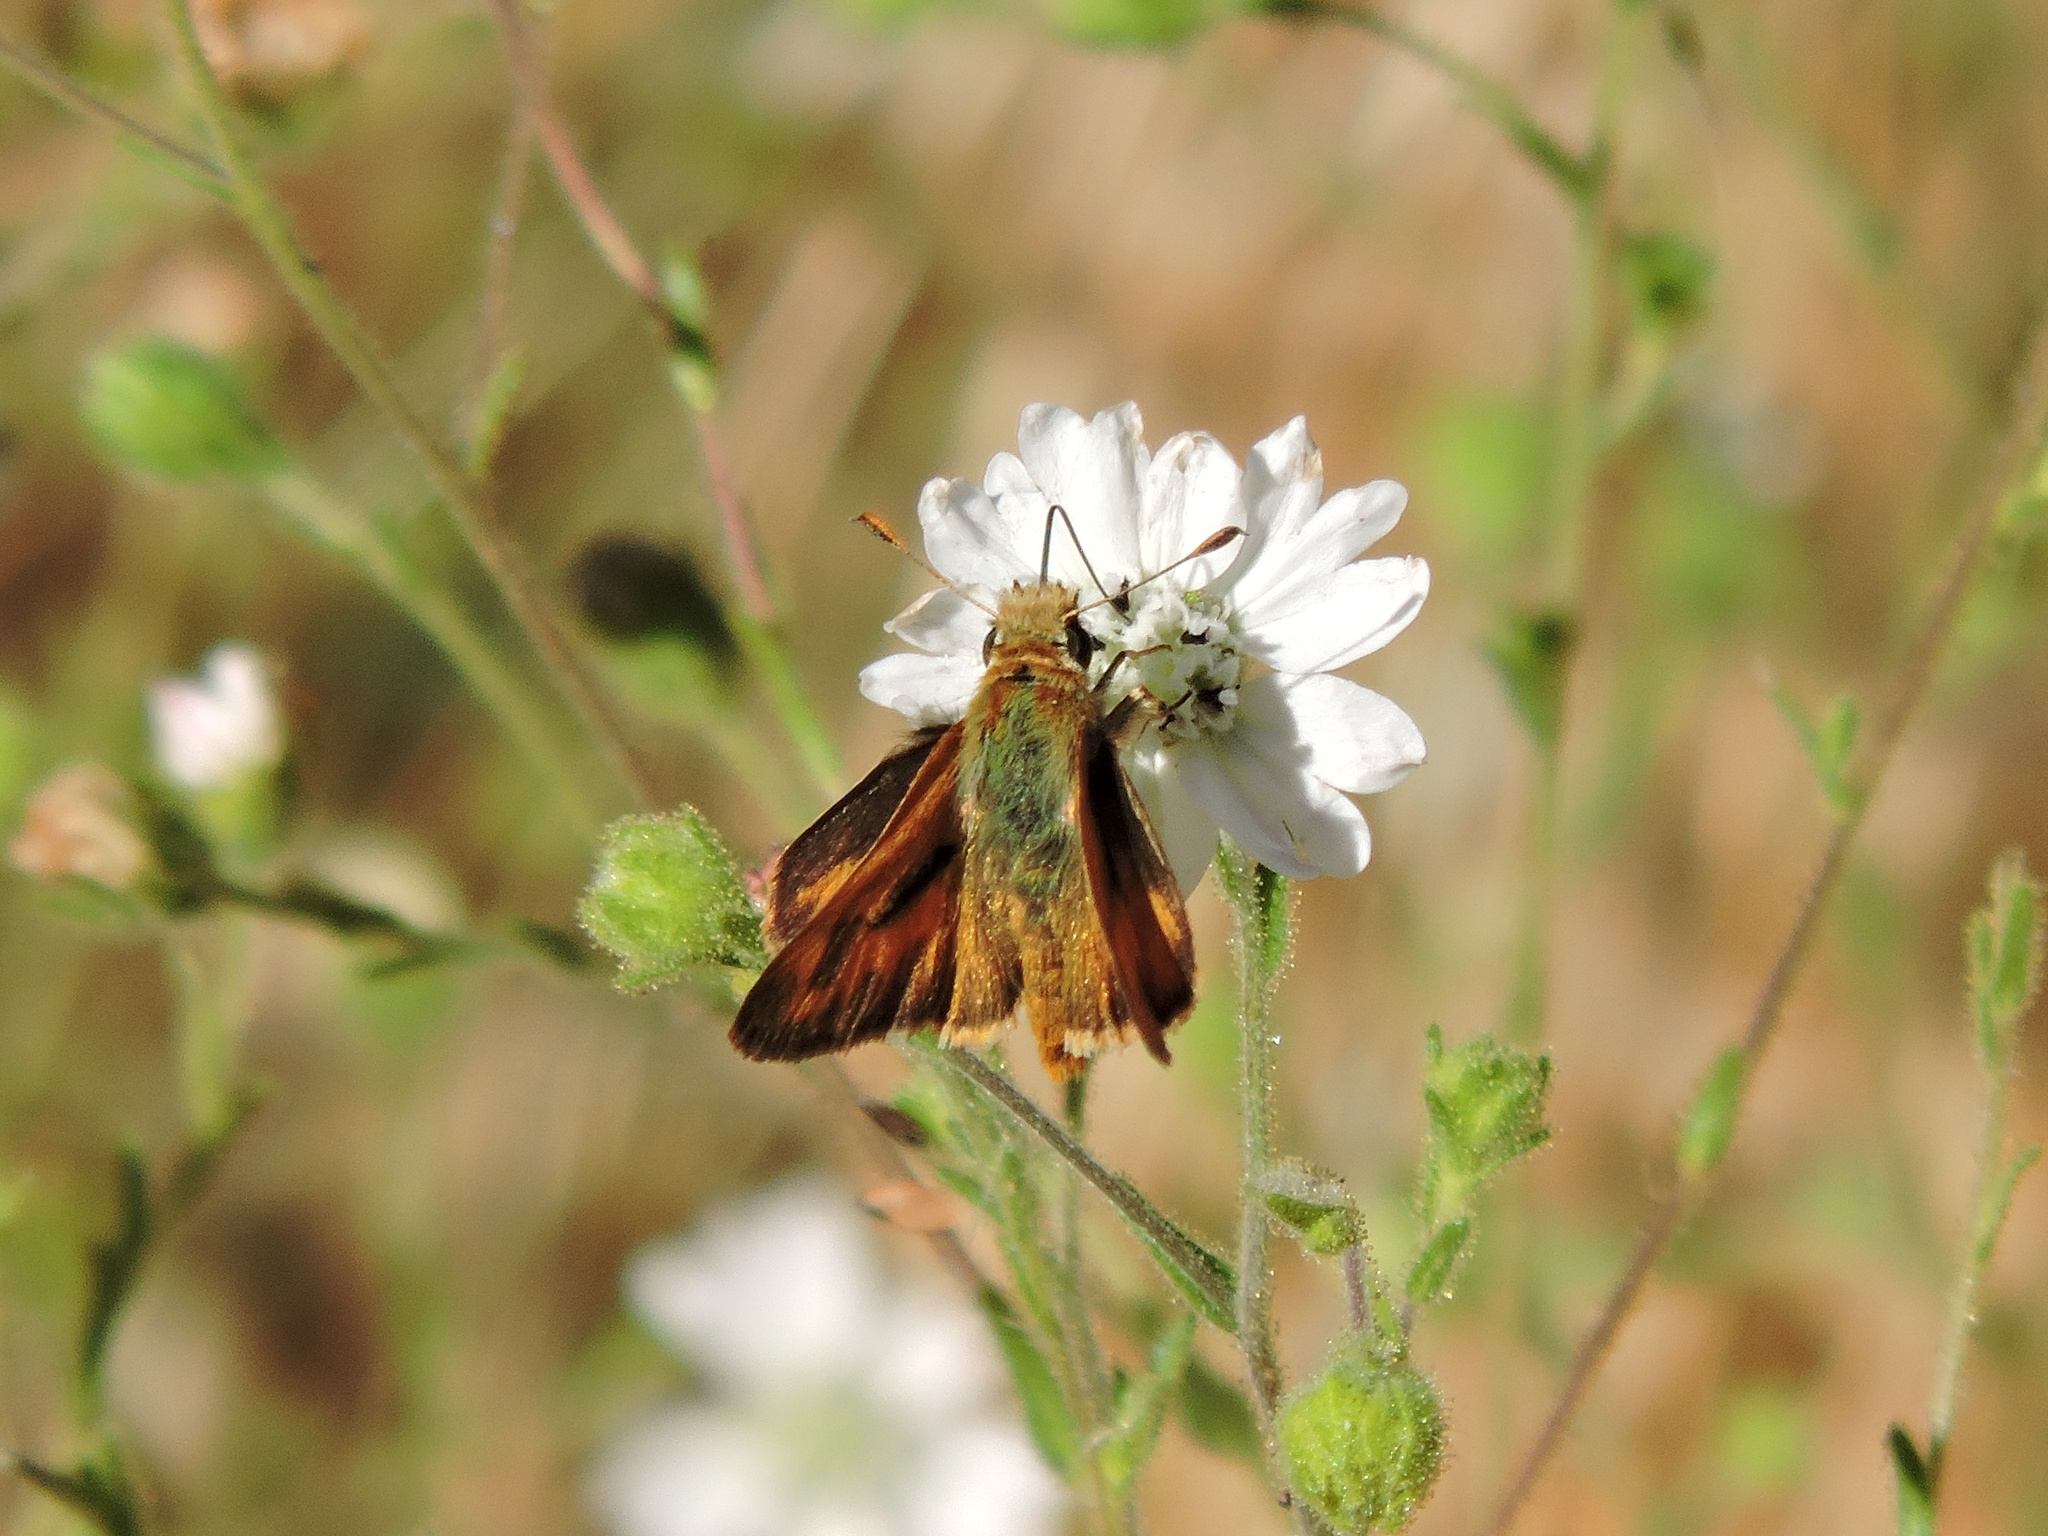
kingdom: Animalia
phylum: Arthropoda
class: Insecta
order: Lepidoptera
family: Hesperiidae
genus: Ochlodes
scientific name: Ochlodes sylvanoides
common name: Woodland skipper
